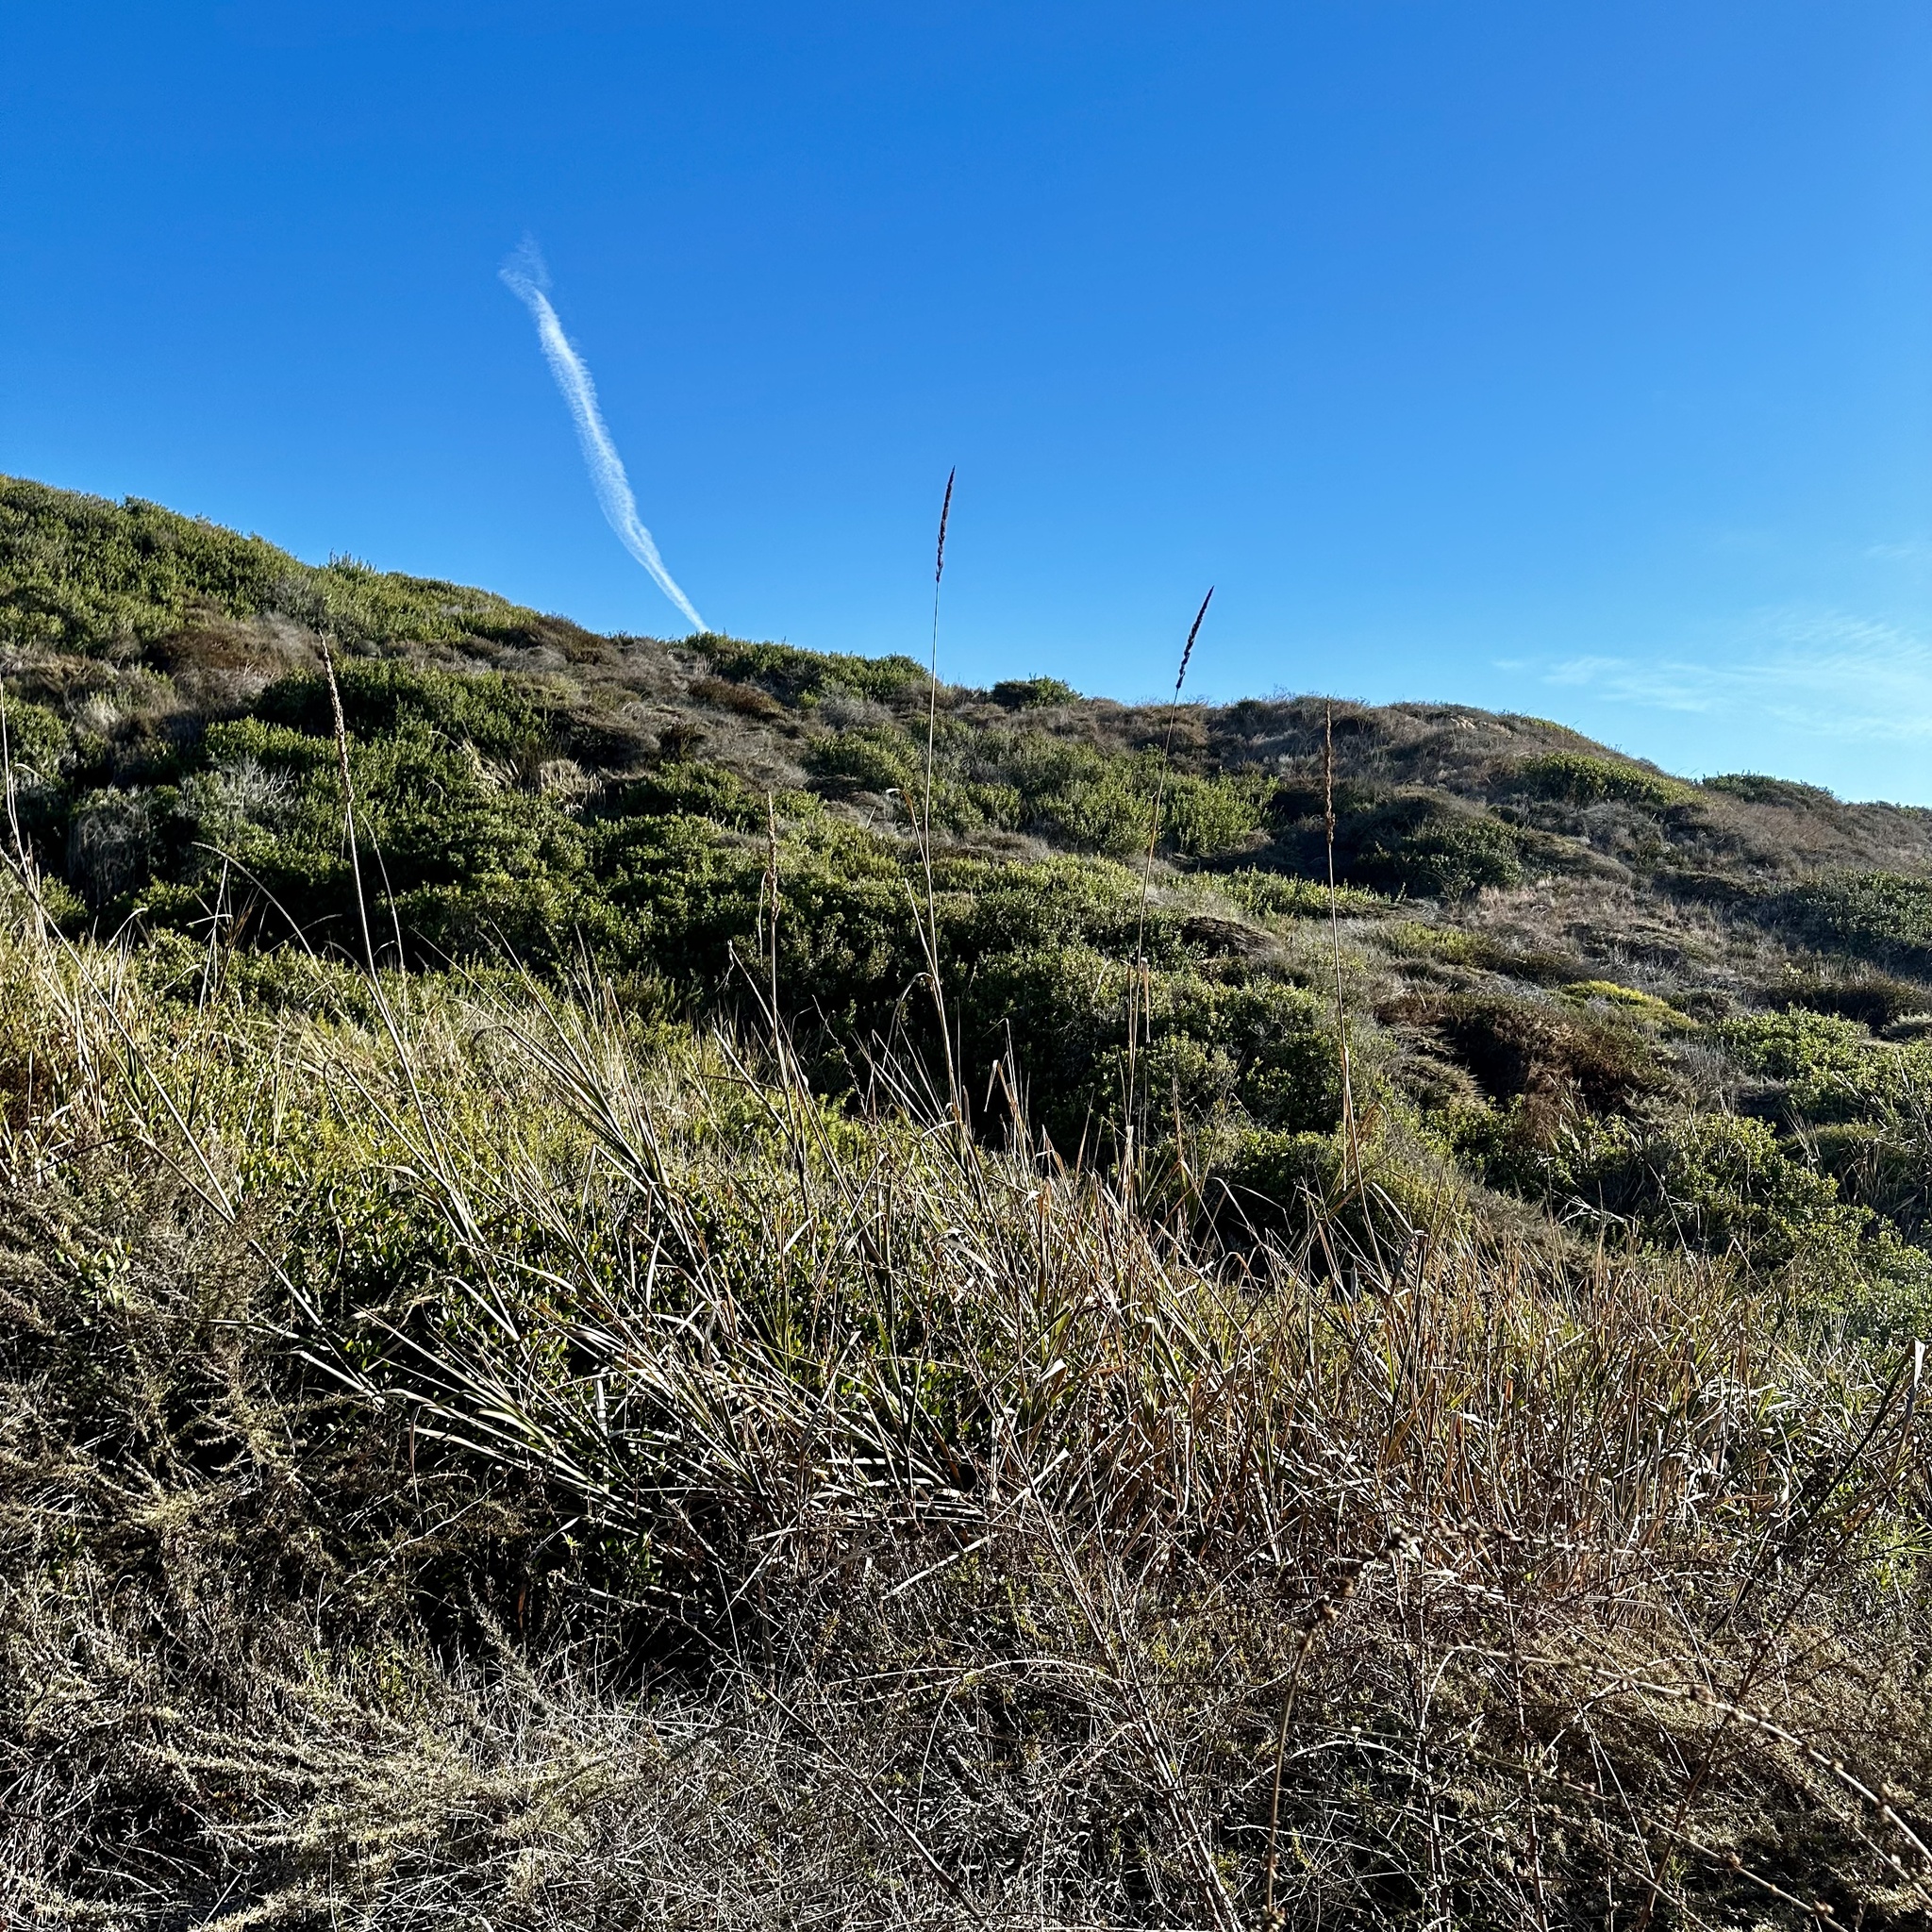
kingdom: Plantae
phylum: Tracheophyta
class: Liliopsida
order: Poales
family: Poaceae
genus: Leymus
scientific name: Leymus condensatus
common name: Giant wild rye
